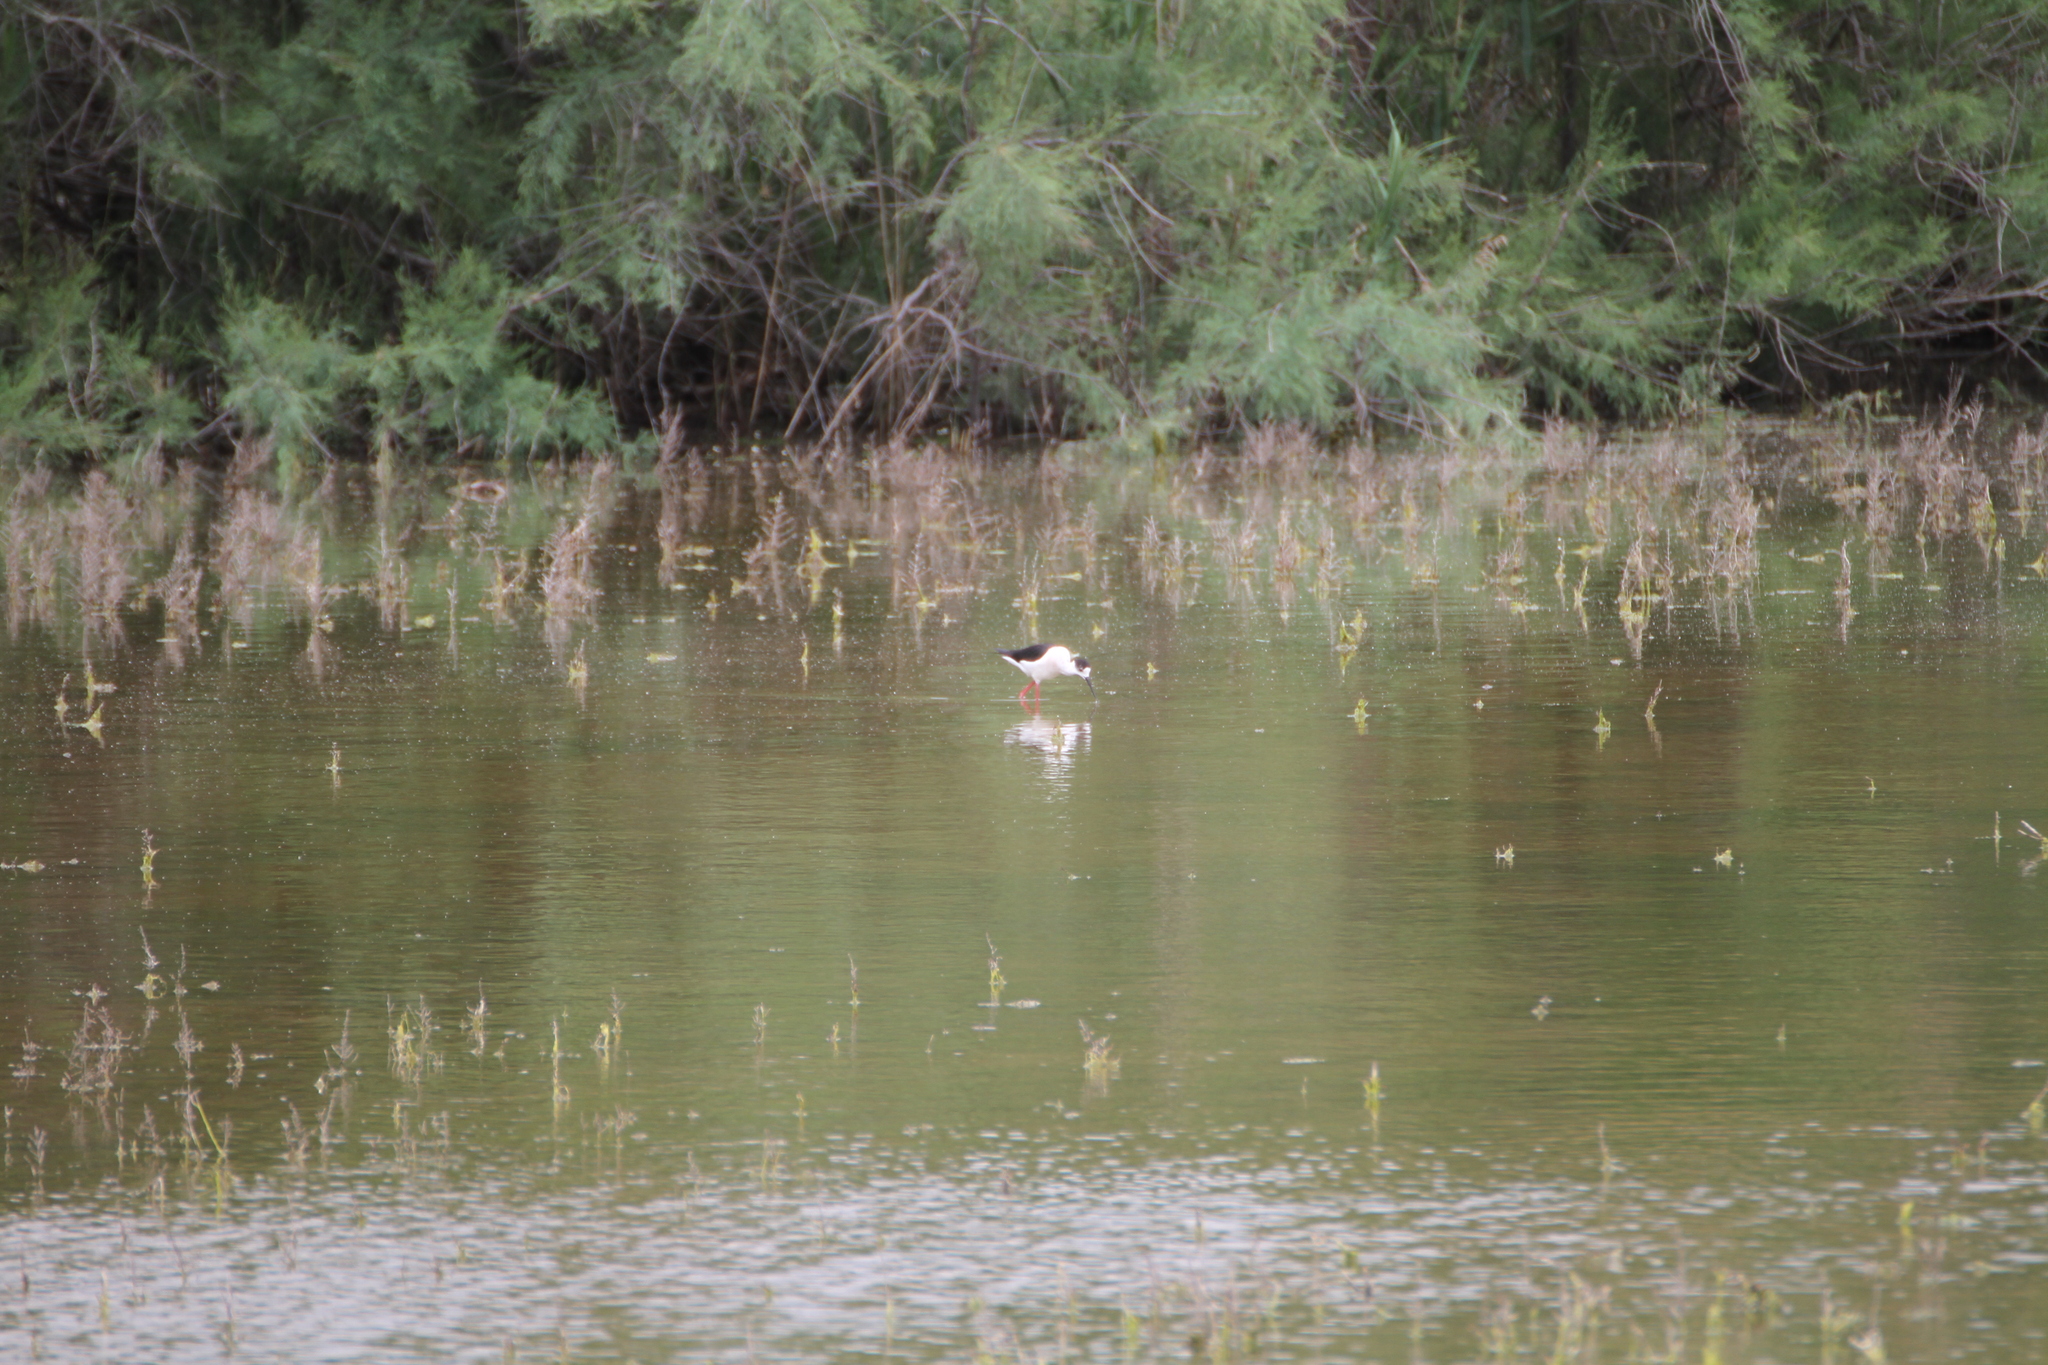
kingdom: Animalia
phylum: Chordata
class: Aves
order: Charadriiformes
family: Recurvirostridae
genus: Himantopus
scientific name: Himantopus himantopus
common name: Black-winged stilt
